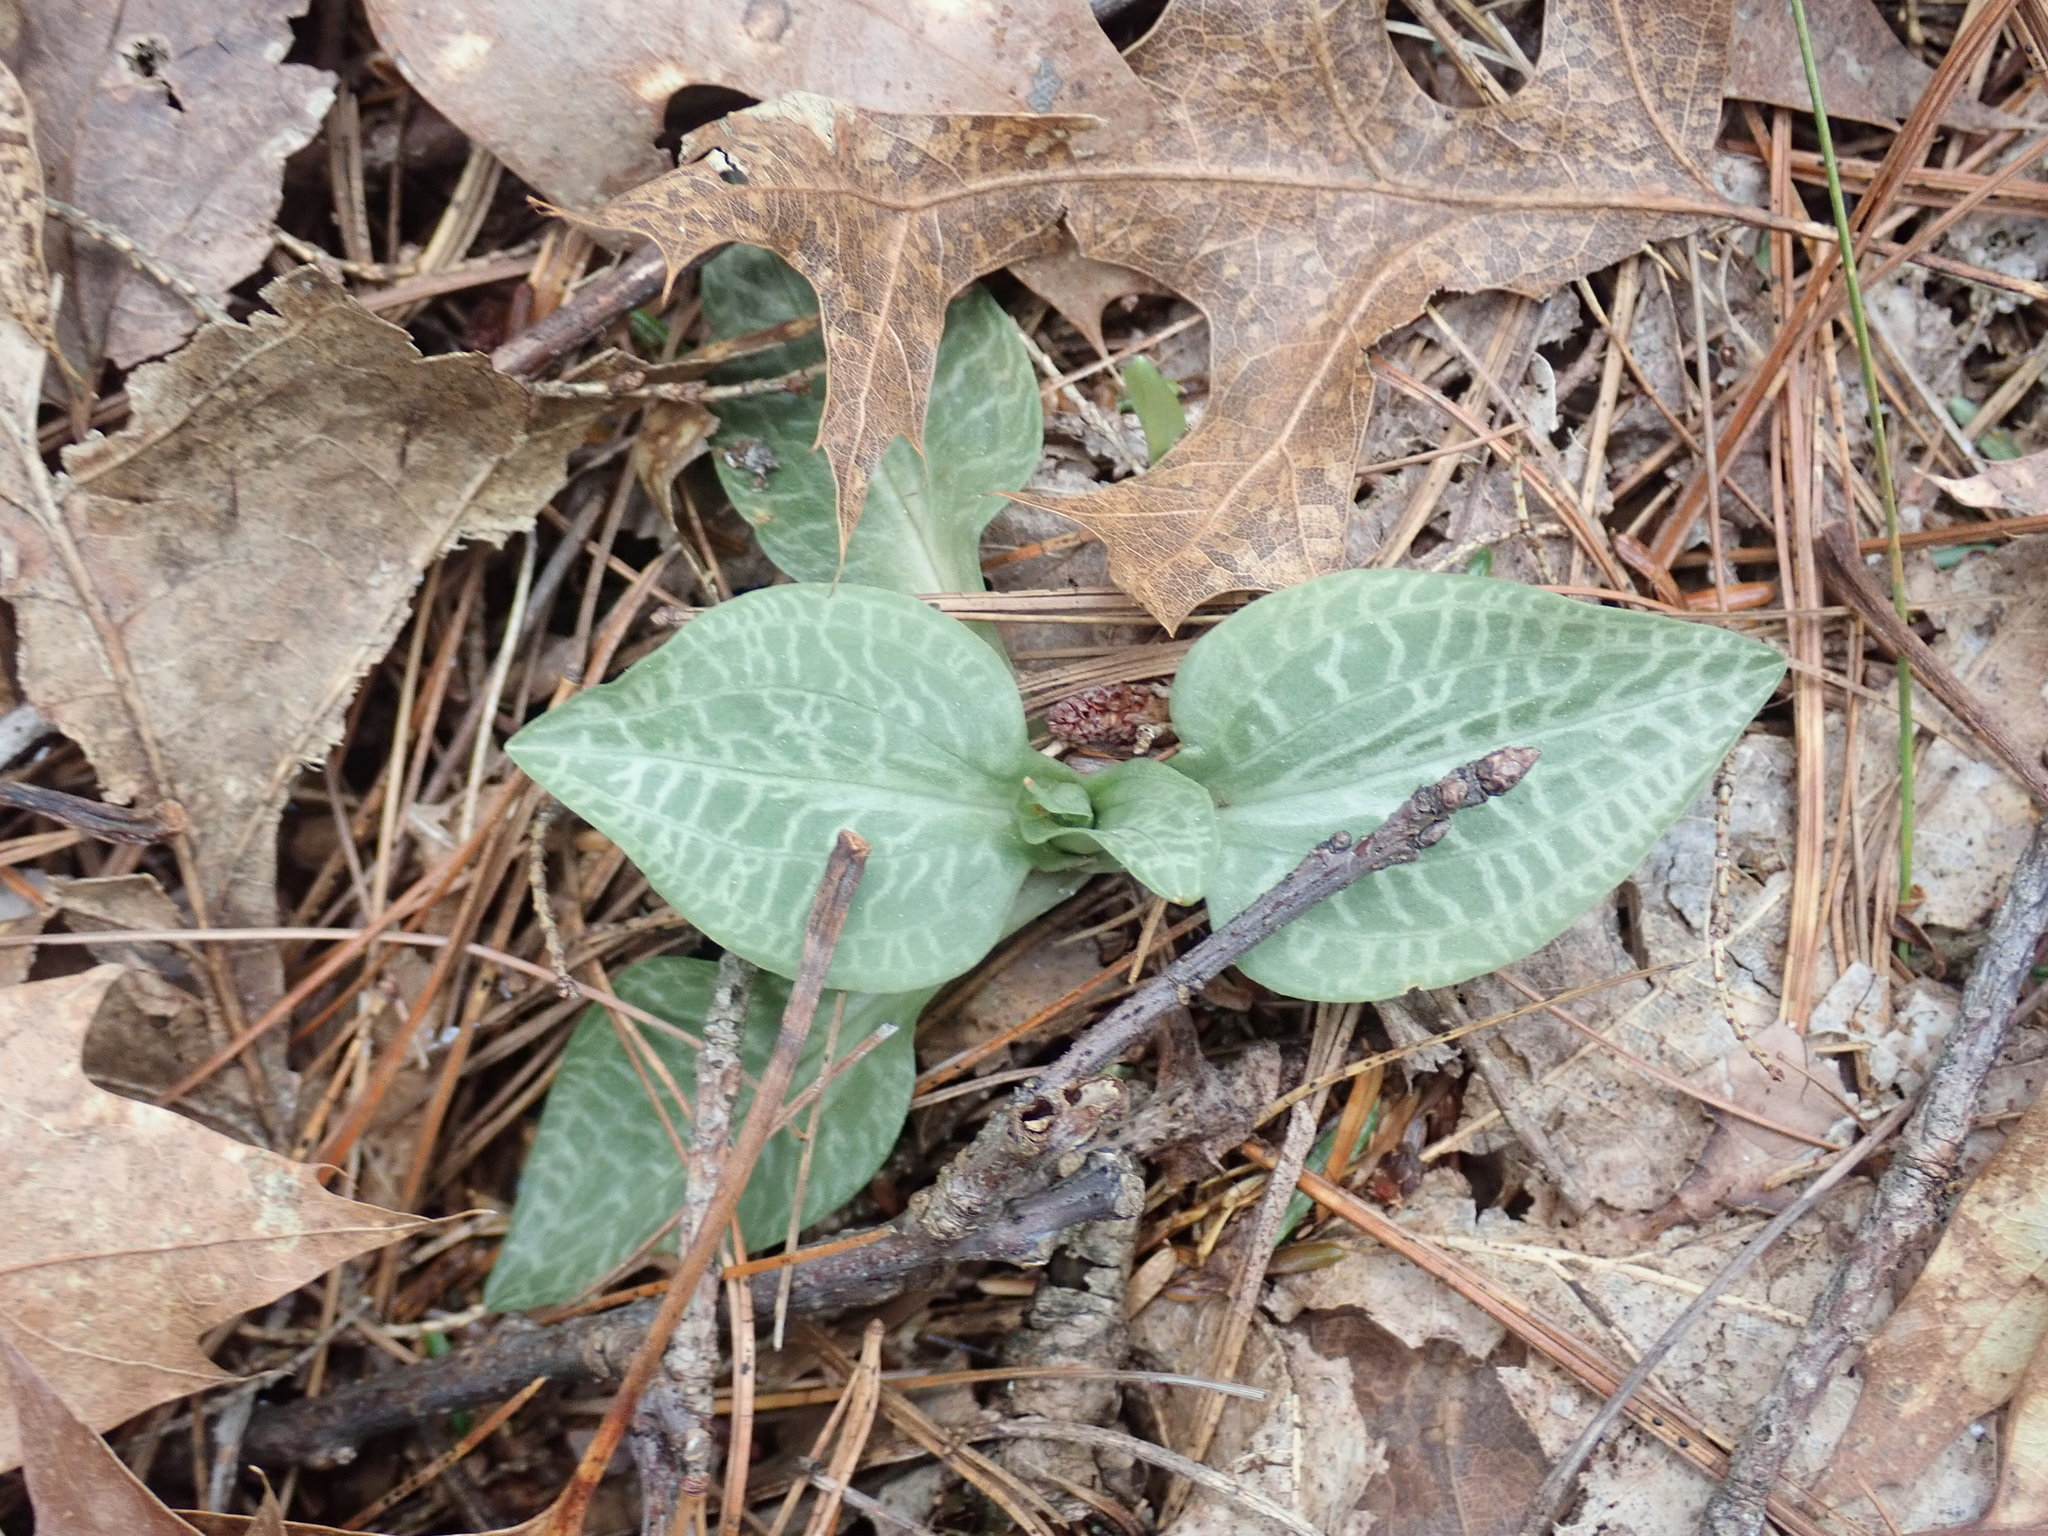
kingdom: Plantae
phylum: Tracheophyta
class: Liliopsida
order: Asparagales
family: Orchidaceae
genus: Goodyera
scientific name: Goodyera tesselata
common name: Checkered rattlesnake-plantain
